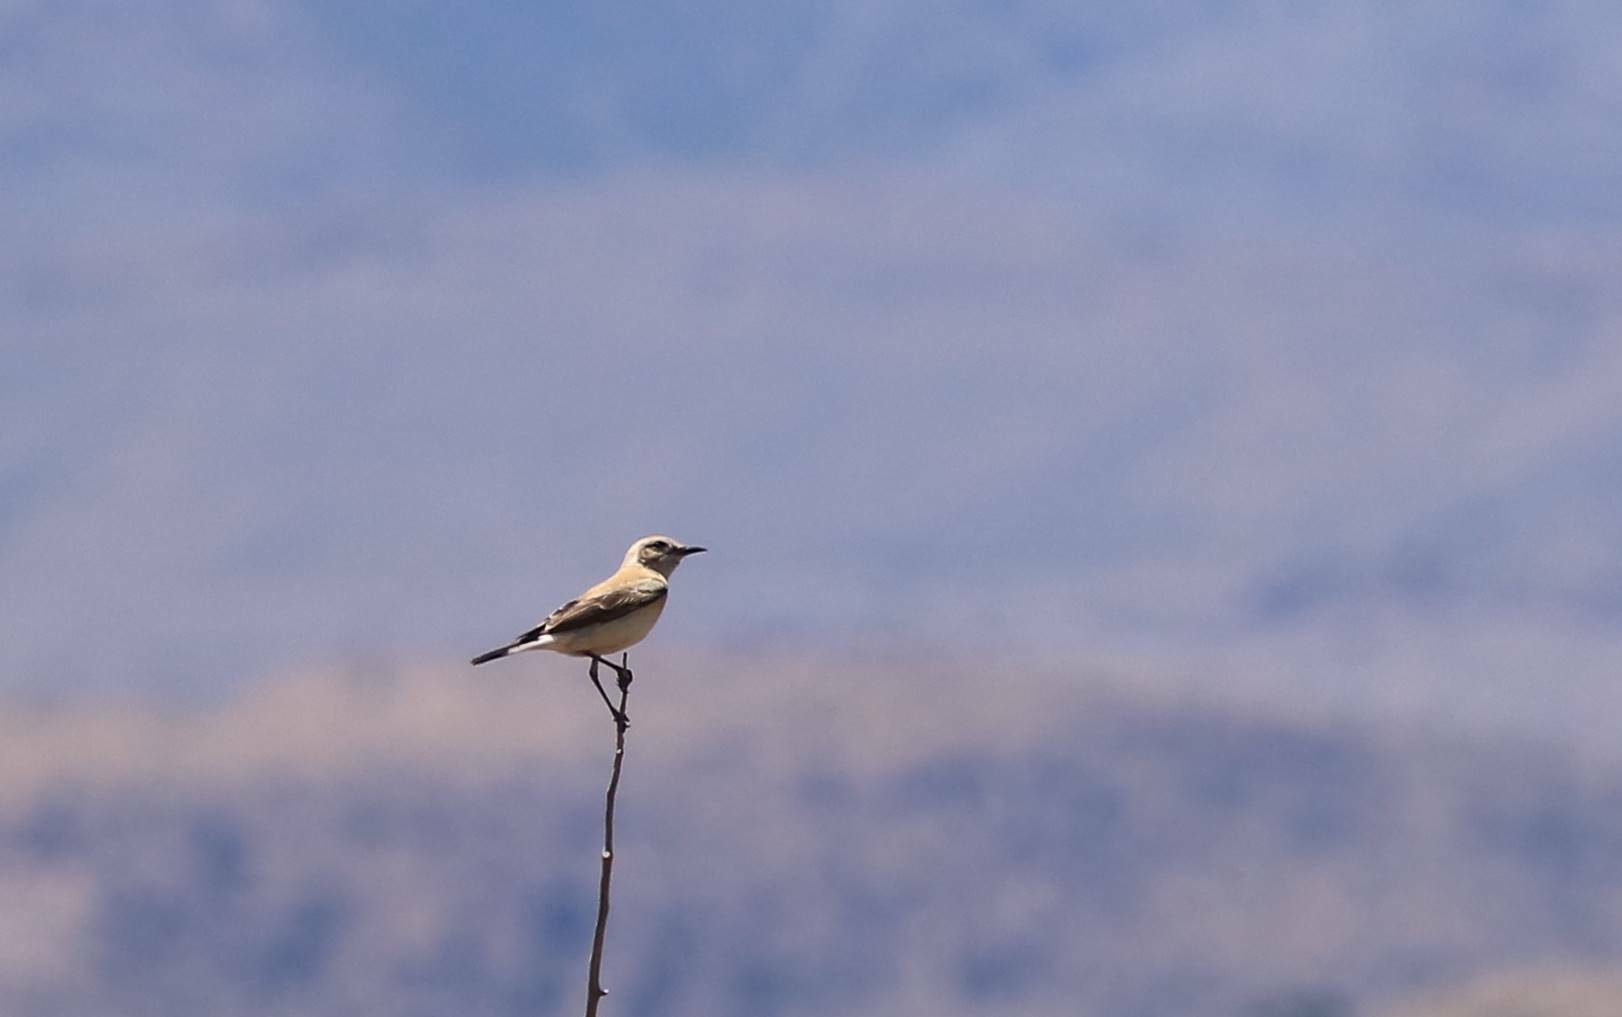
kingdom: Animalia
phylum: Chordata
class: Aves
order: Passeriformes
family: Muscicapidae
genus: Oenanthe
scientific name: Oenanthe hispanica
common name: Black-eared wheatear
